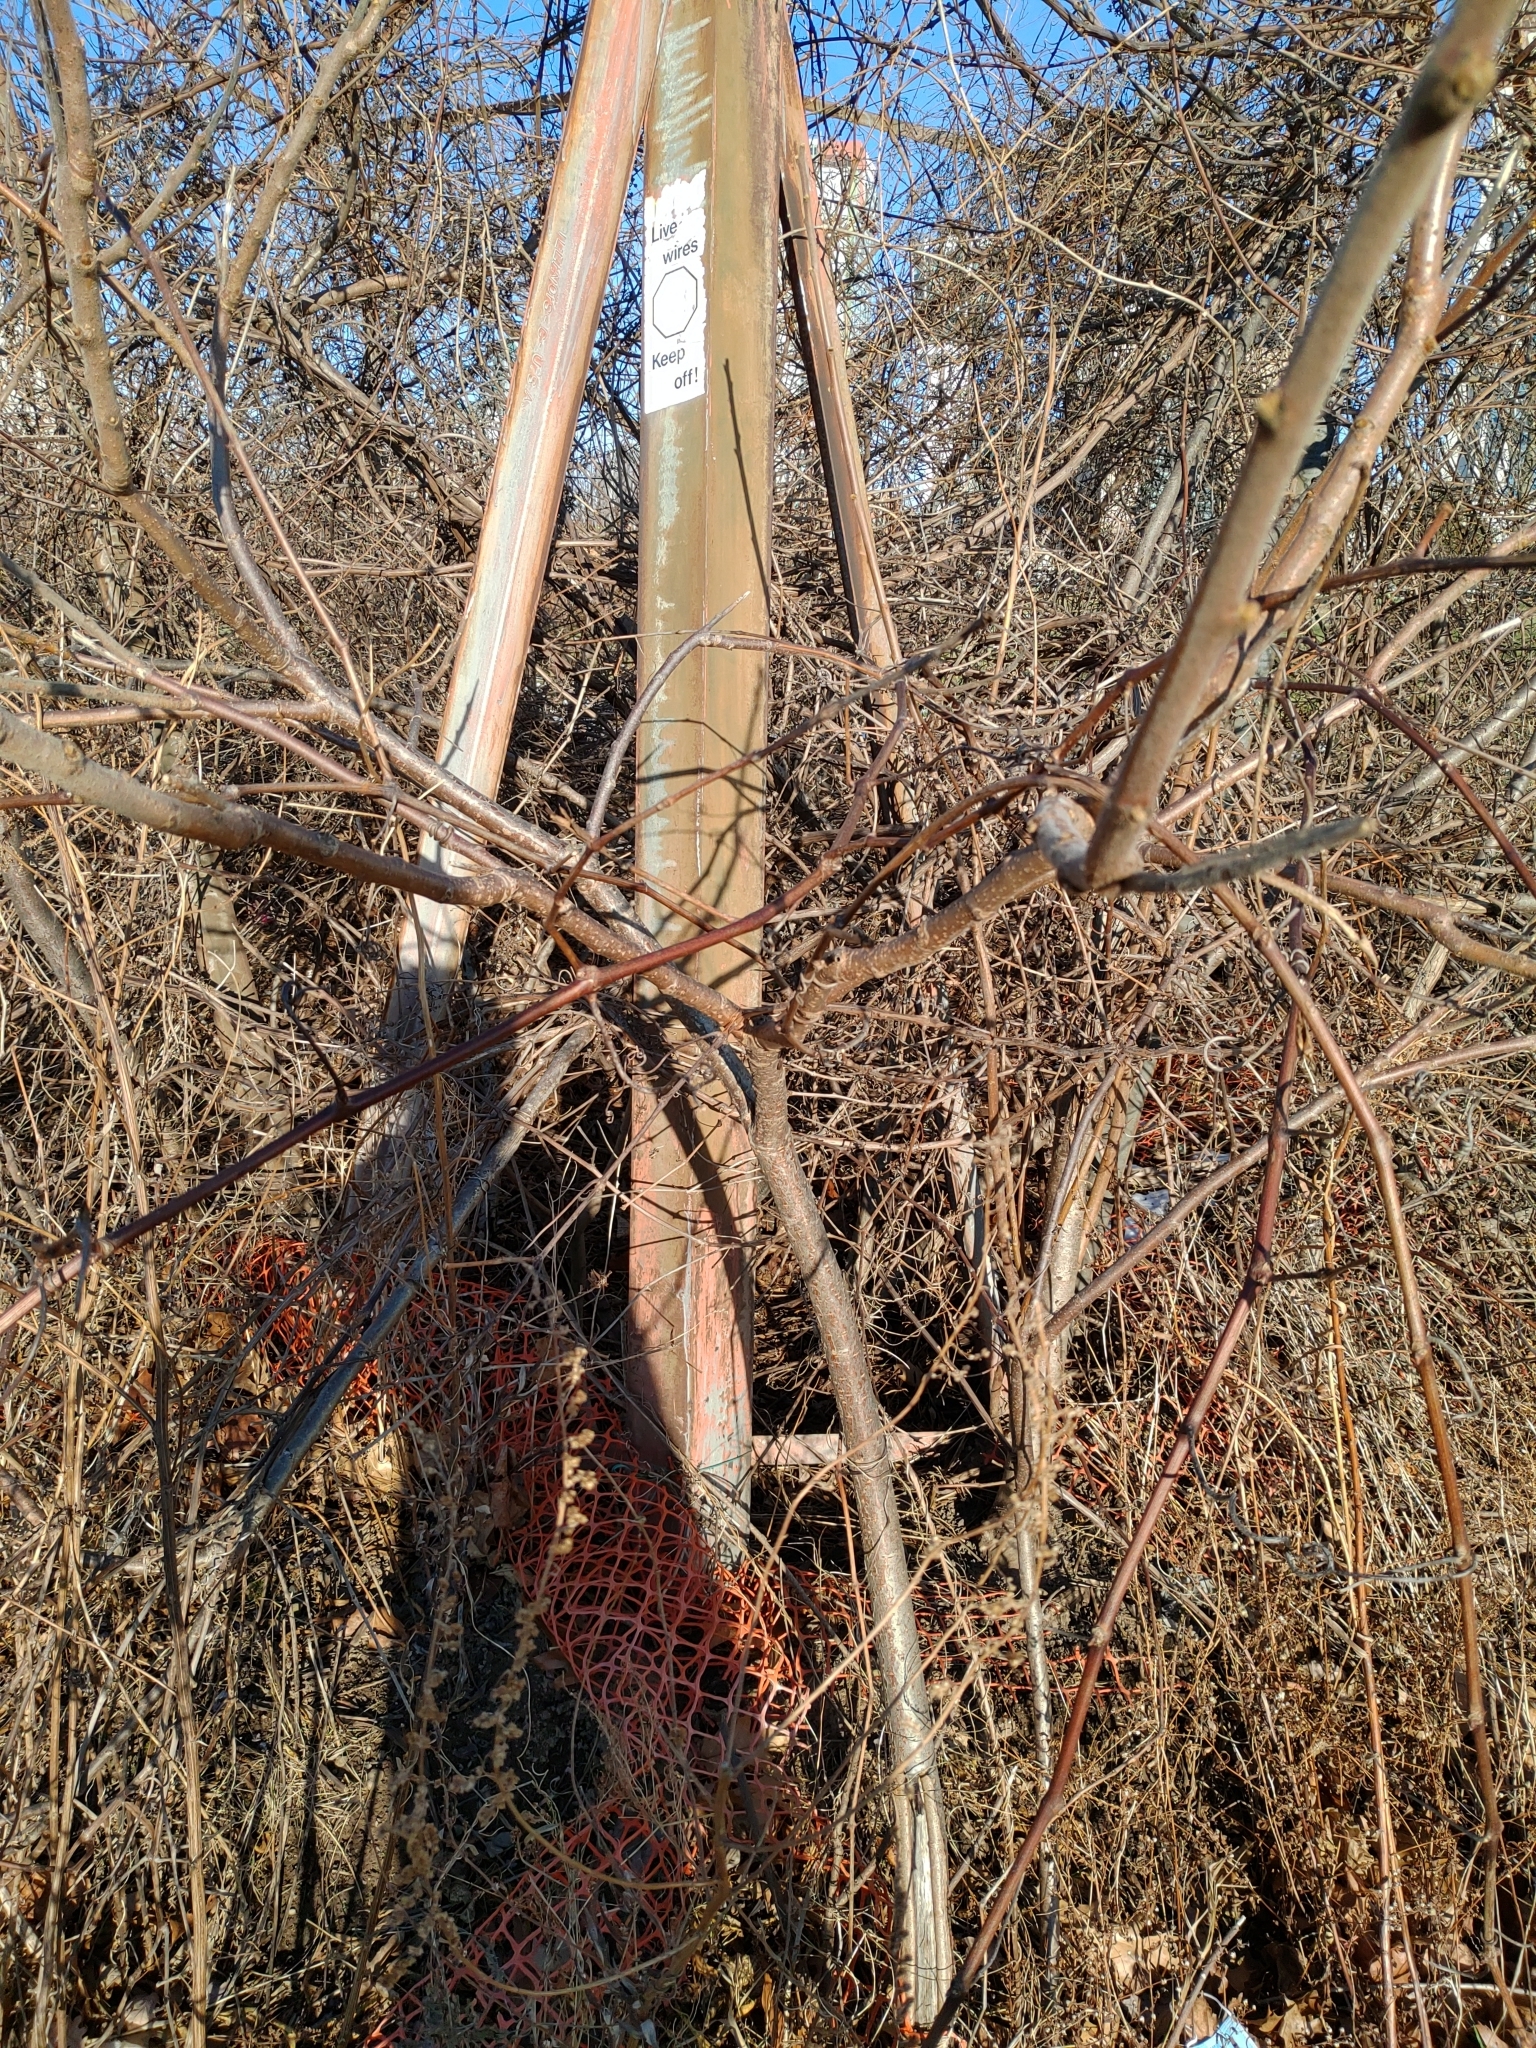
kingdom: Plantae
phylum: Tracheophyta
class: Magnoliopsida
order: Sapindales
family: Anacardiaceae
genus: Rhus
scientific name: Rhus typhina
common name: Staghorn sumac
